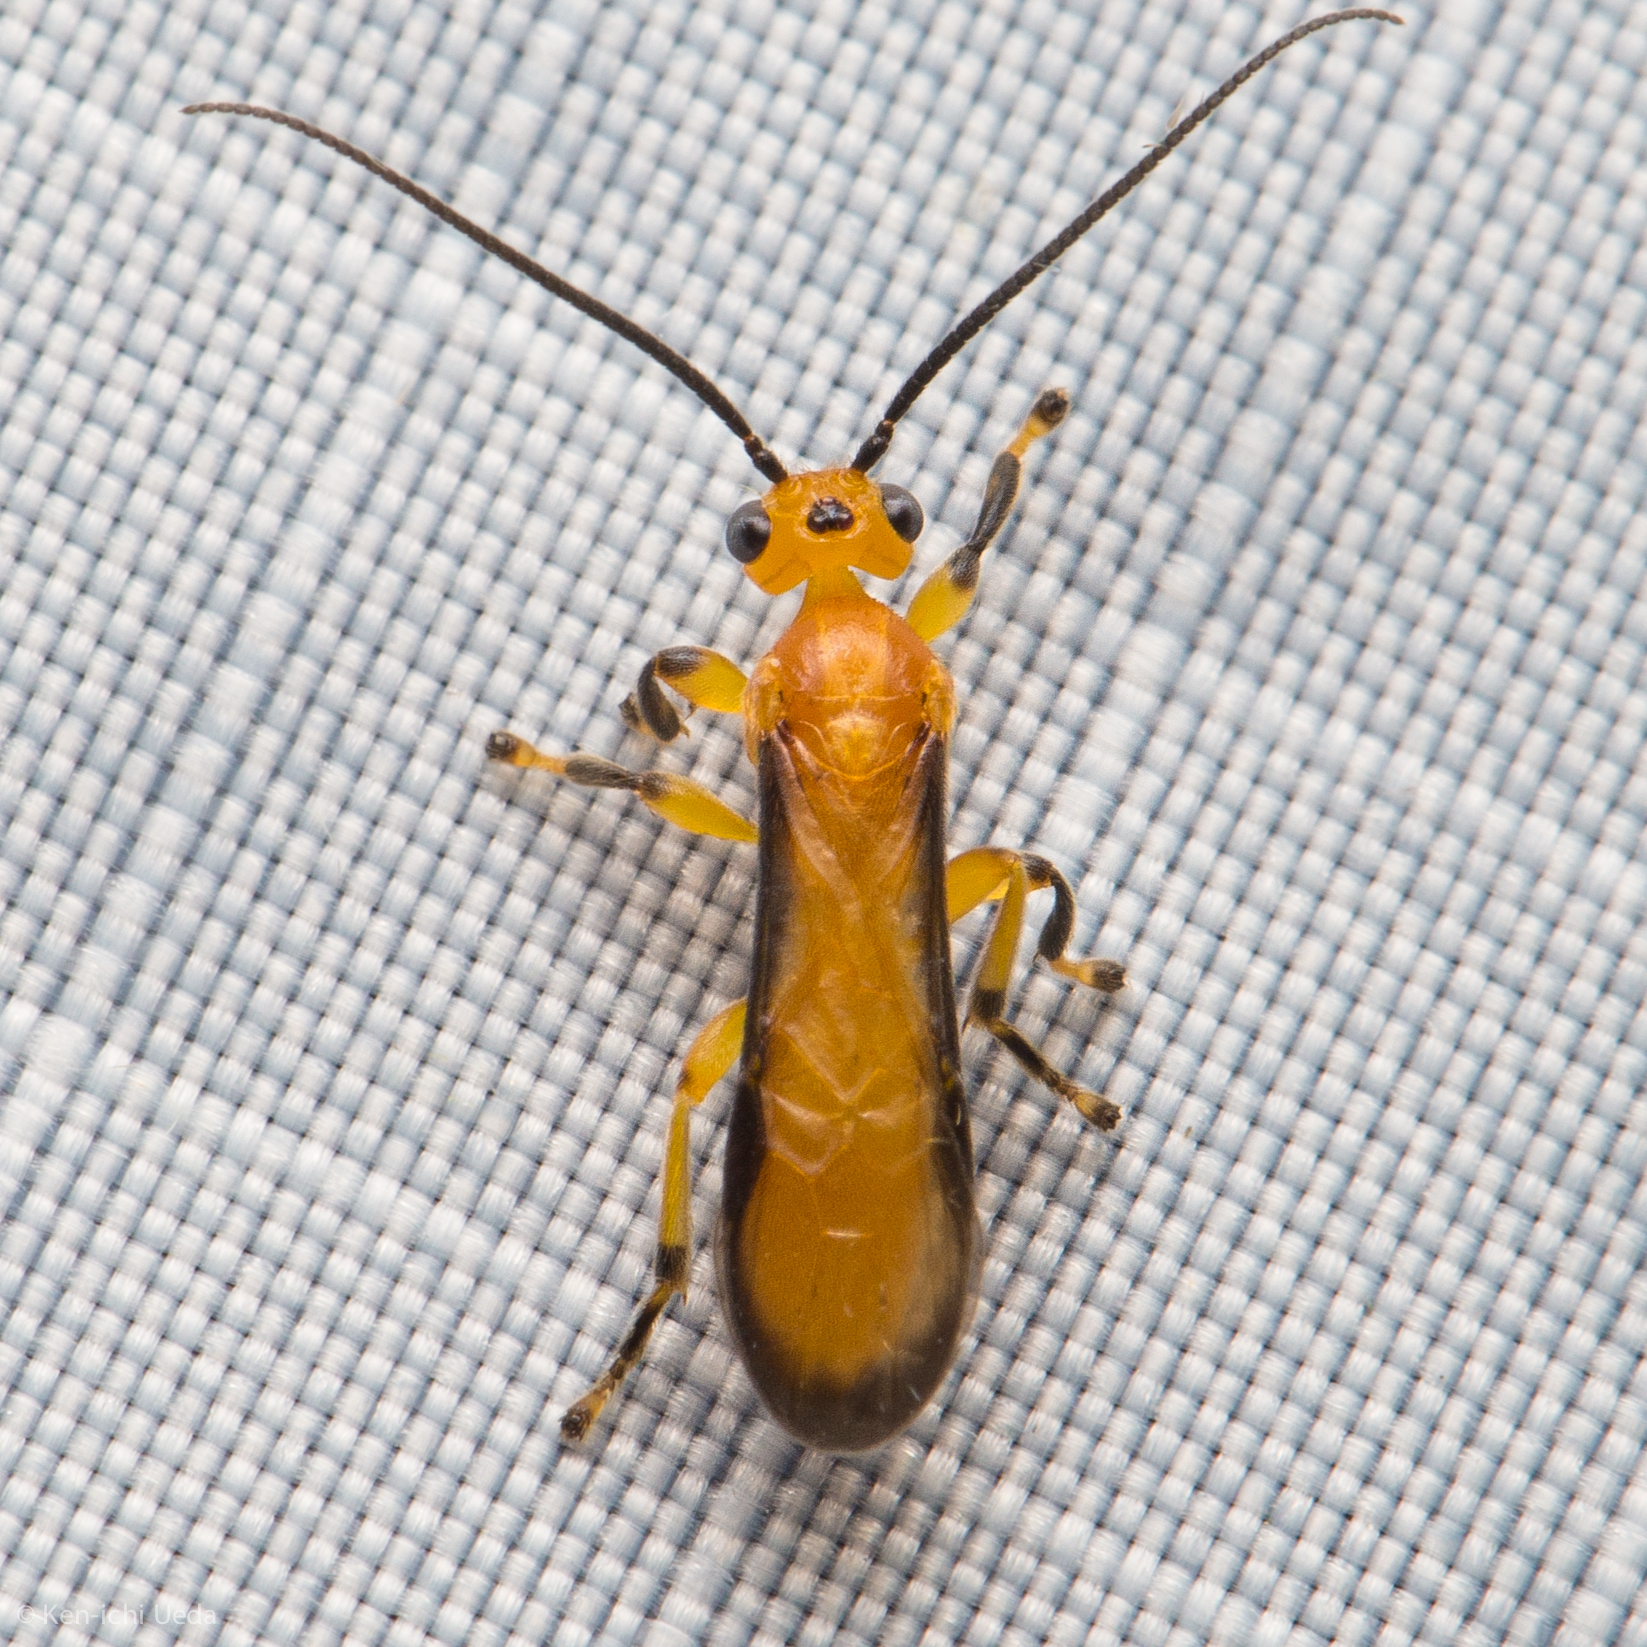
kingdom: Animalia
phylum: Arthropoda
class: Insecta
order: Hymenoptera
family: Braconidae
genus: Yelicones
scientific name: Yelicones nigromarginatus
